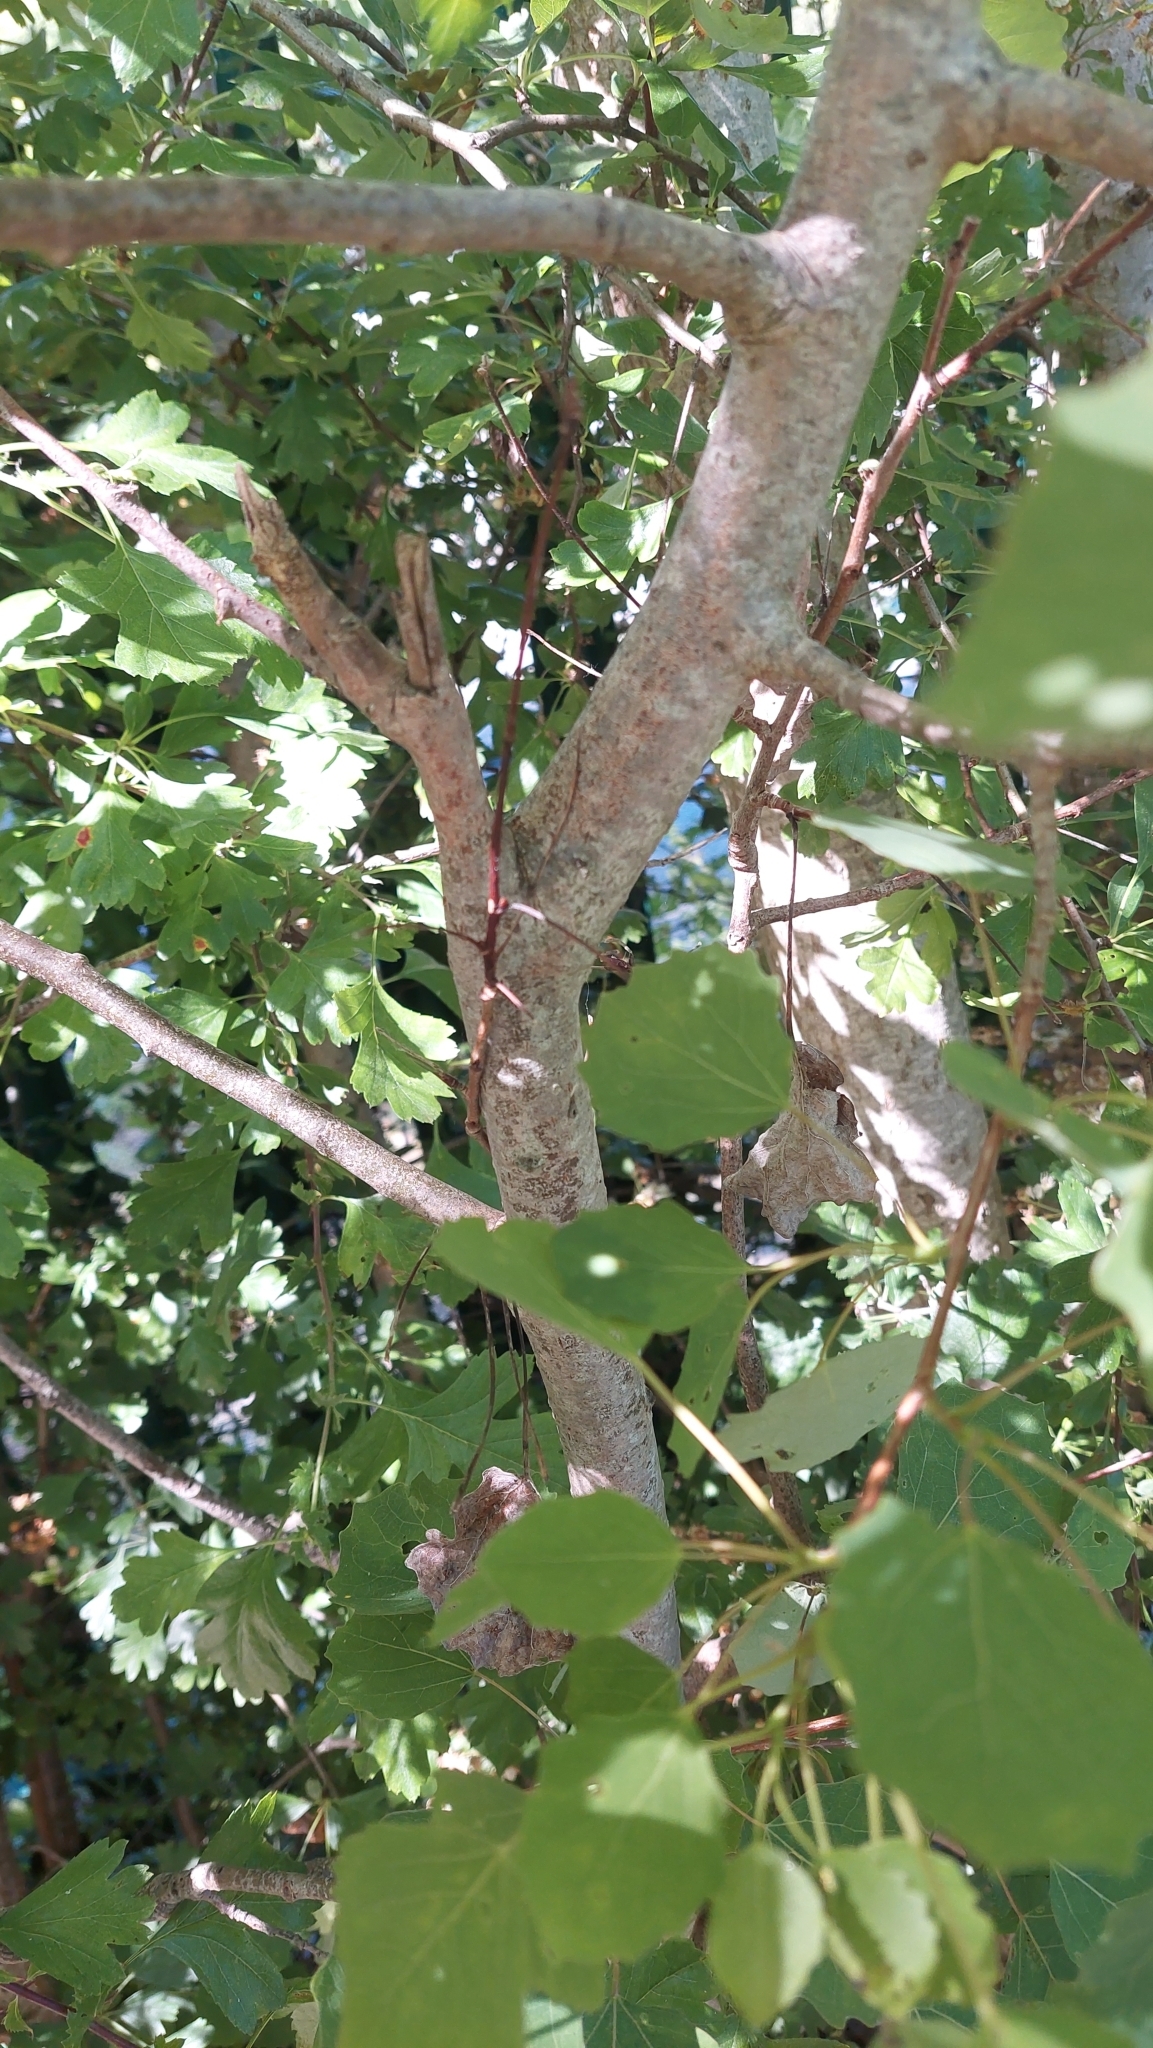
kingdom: Plantae
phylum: Tracheophyta
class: Magnoliopsida
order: Malpighiales
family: Salicaceae
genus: Populus
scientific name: Populus tremula
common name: European aspen
